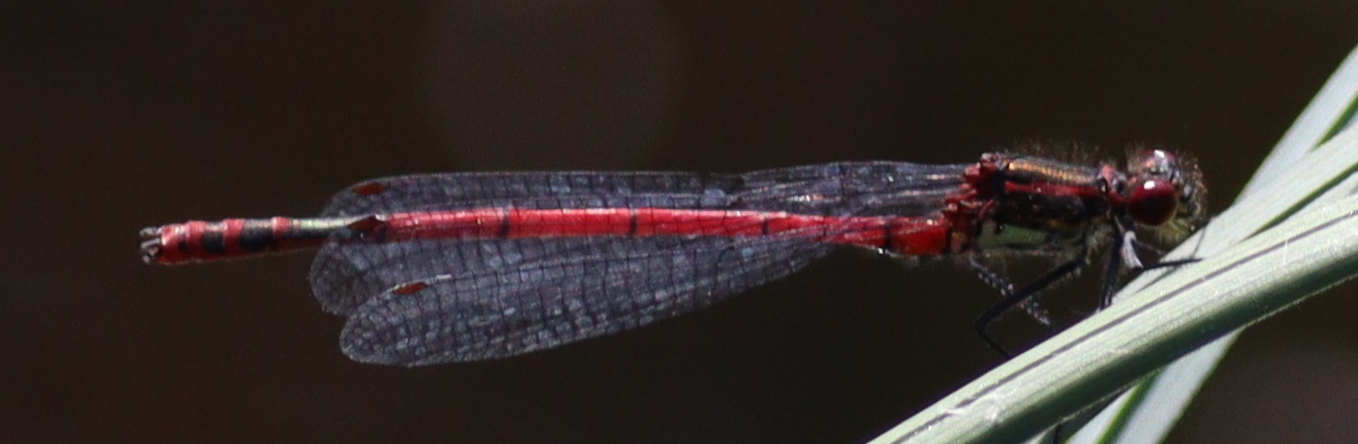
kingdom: Animalia
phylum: Arthropoda
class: Insecta
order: Odonata
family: Coenagrionidae
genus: Pyrrhosoma
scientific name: Pyrrhosoma nymphula
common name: Large red damsel
